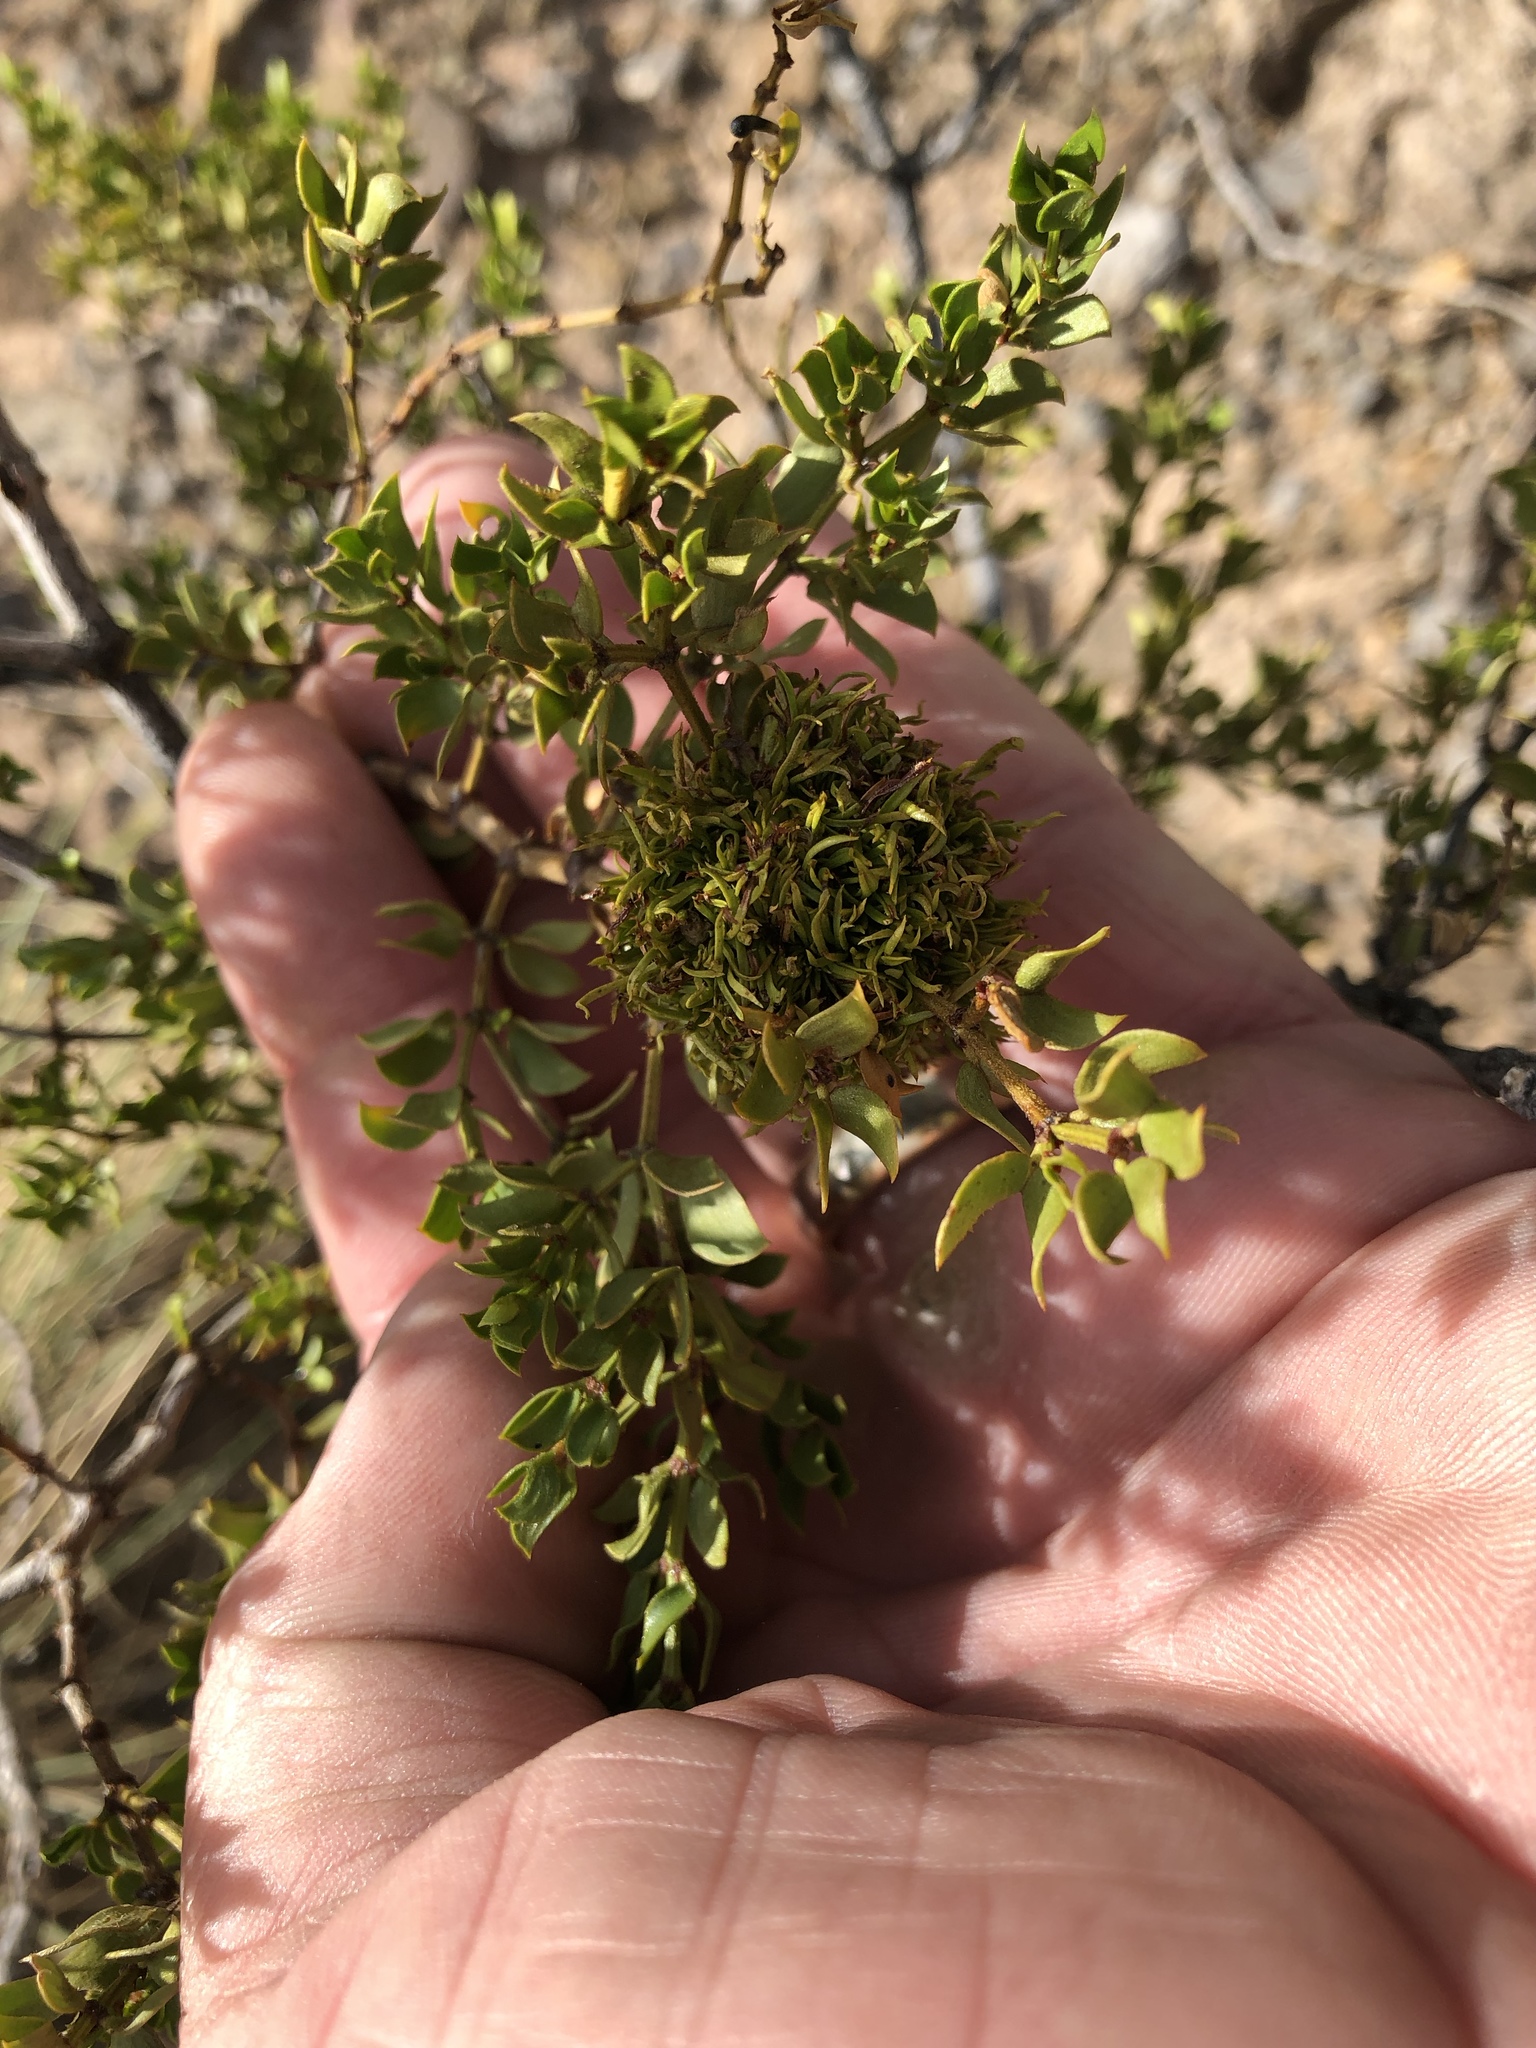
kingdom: Animalia
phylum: Arthropoda
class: Insecta
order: Diptera
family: Cecidomyiidae
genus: Asphondylia
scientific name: Asphondylia auripila
